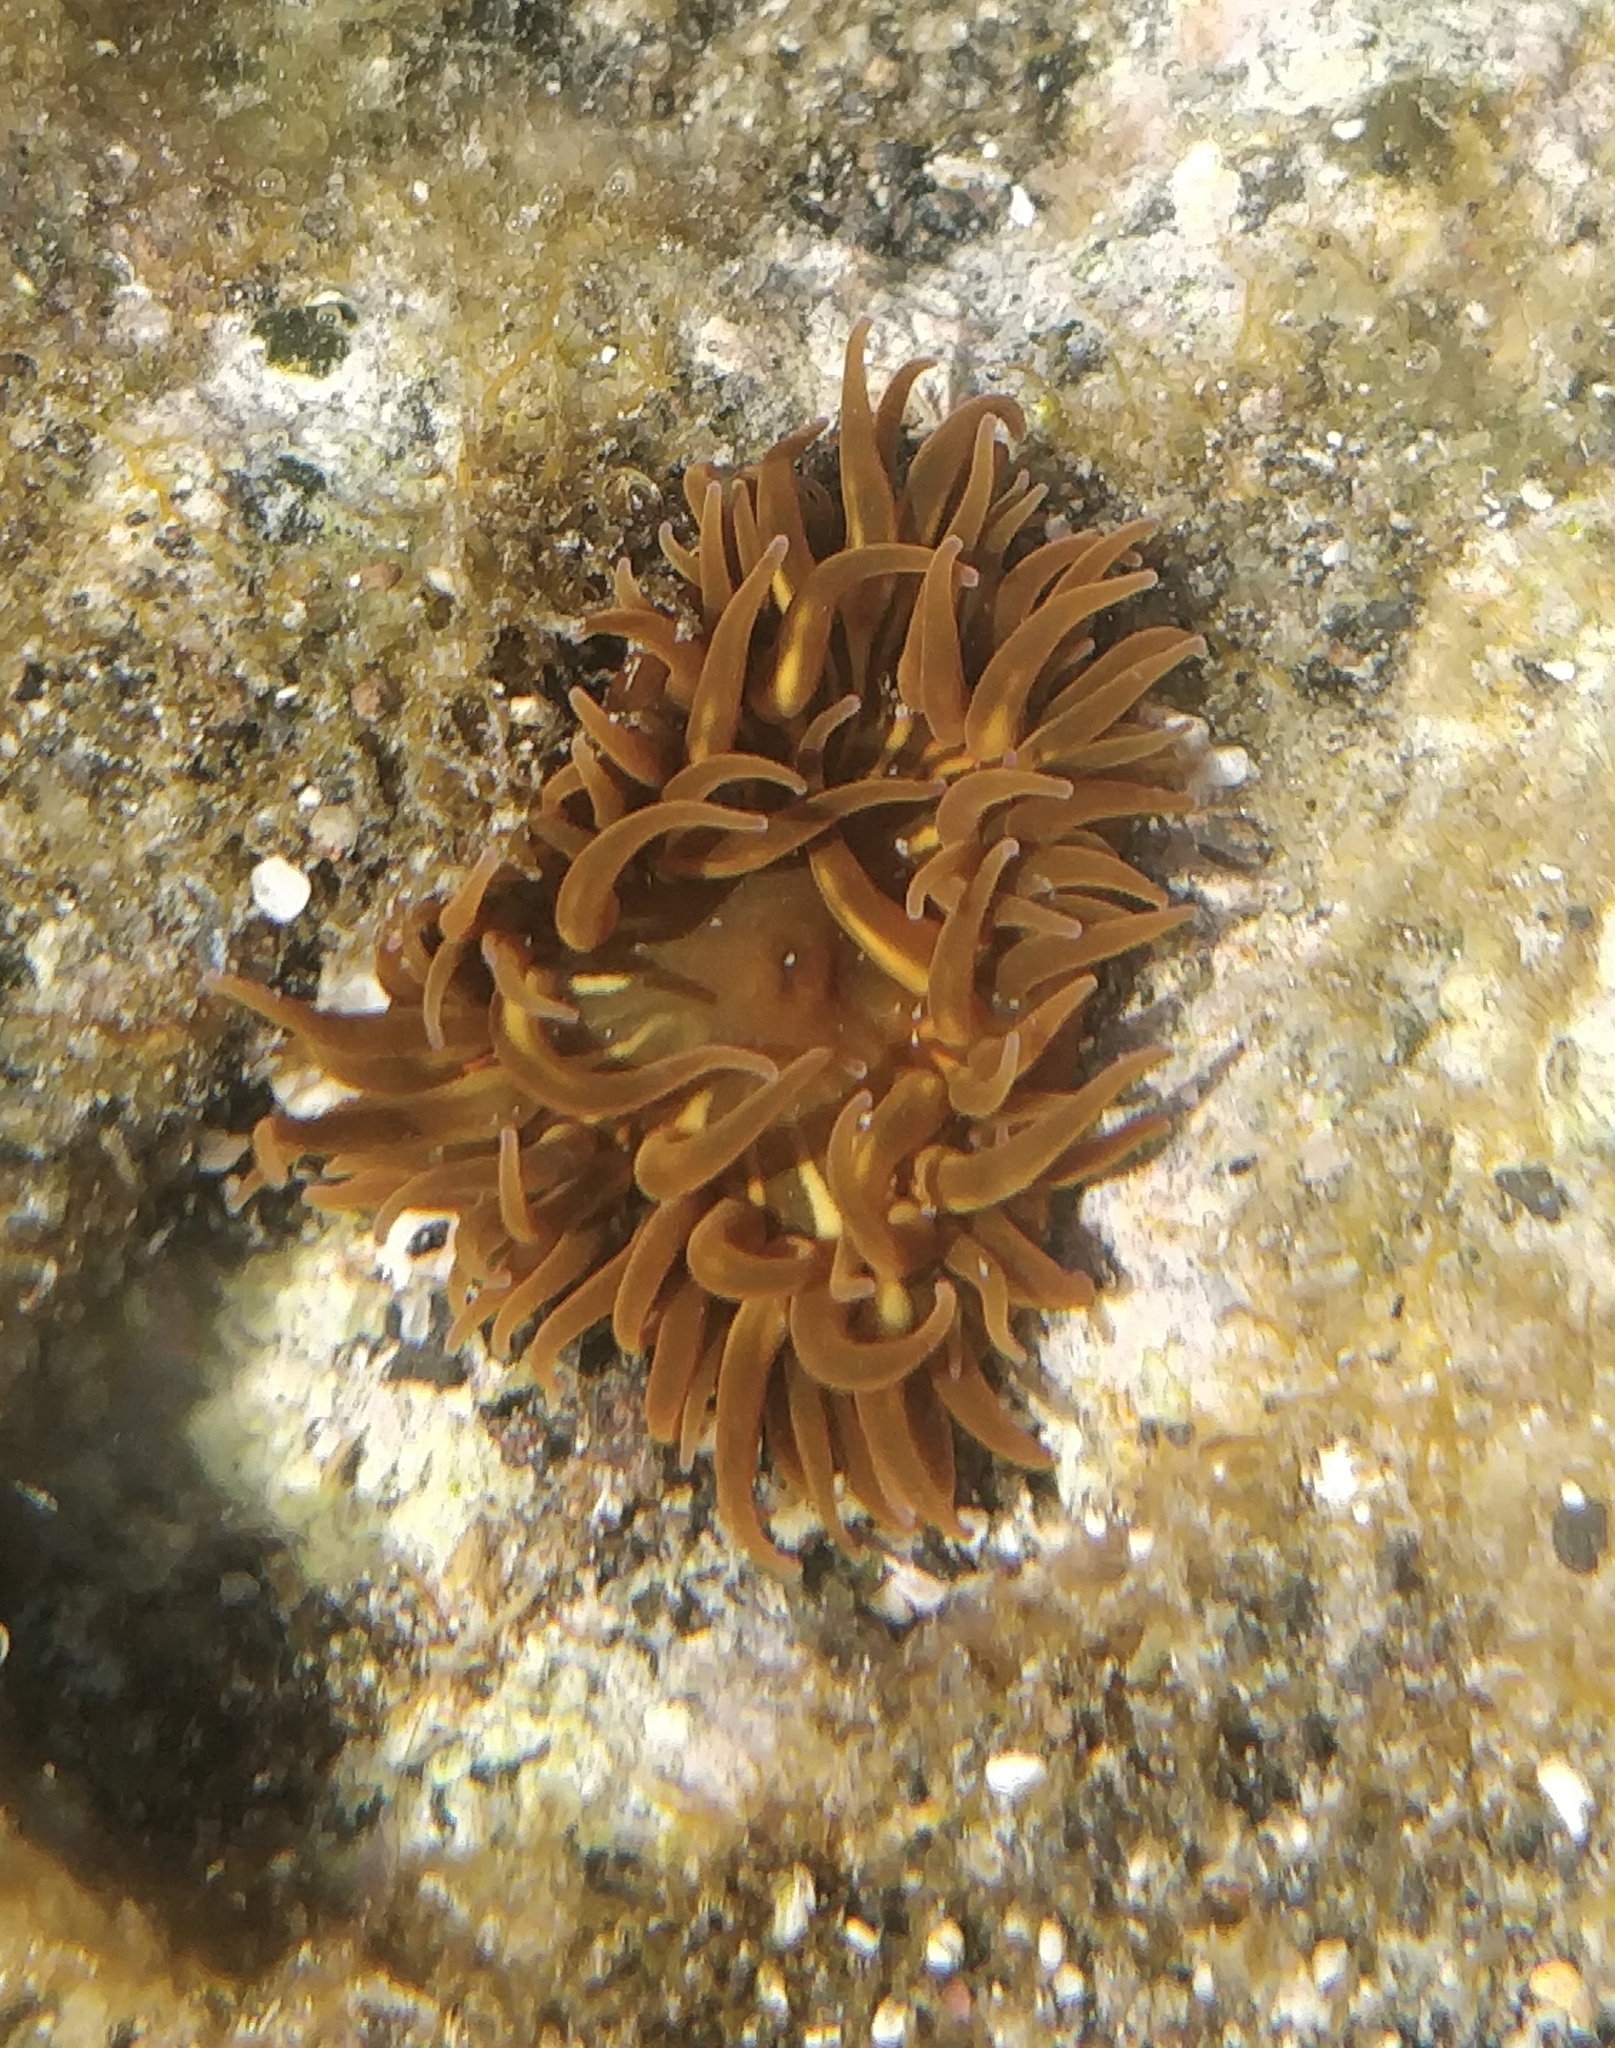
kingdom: Animalia
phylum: Cnidaria
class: Anthozoa
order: Actiniaria
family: Actiniidae
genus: Anemonia
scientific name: Anemonia sargassensis
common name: Sargassum anemone
